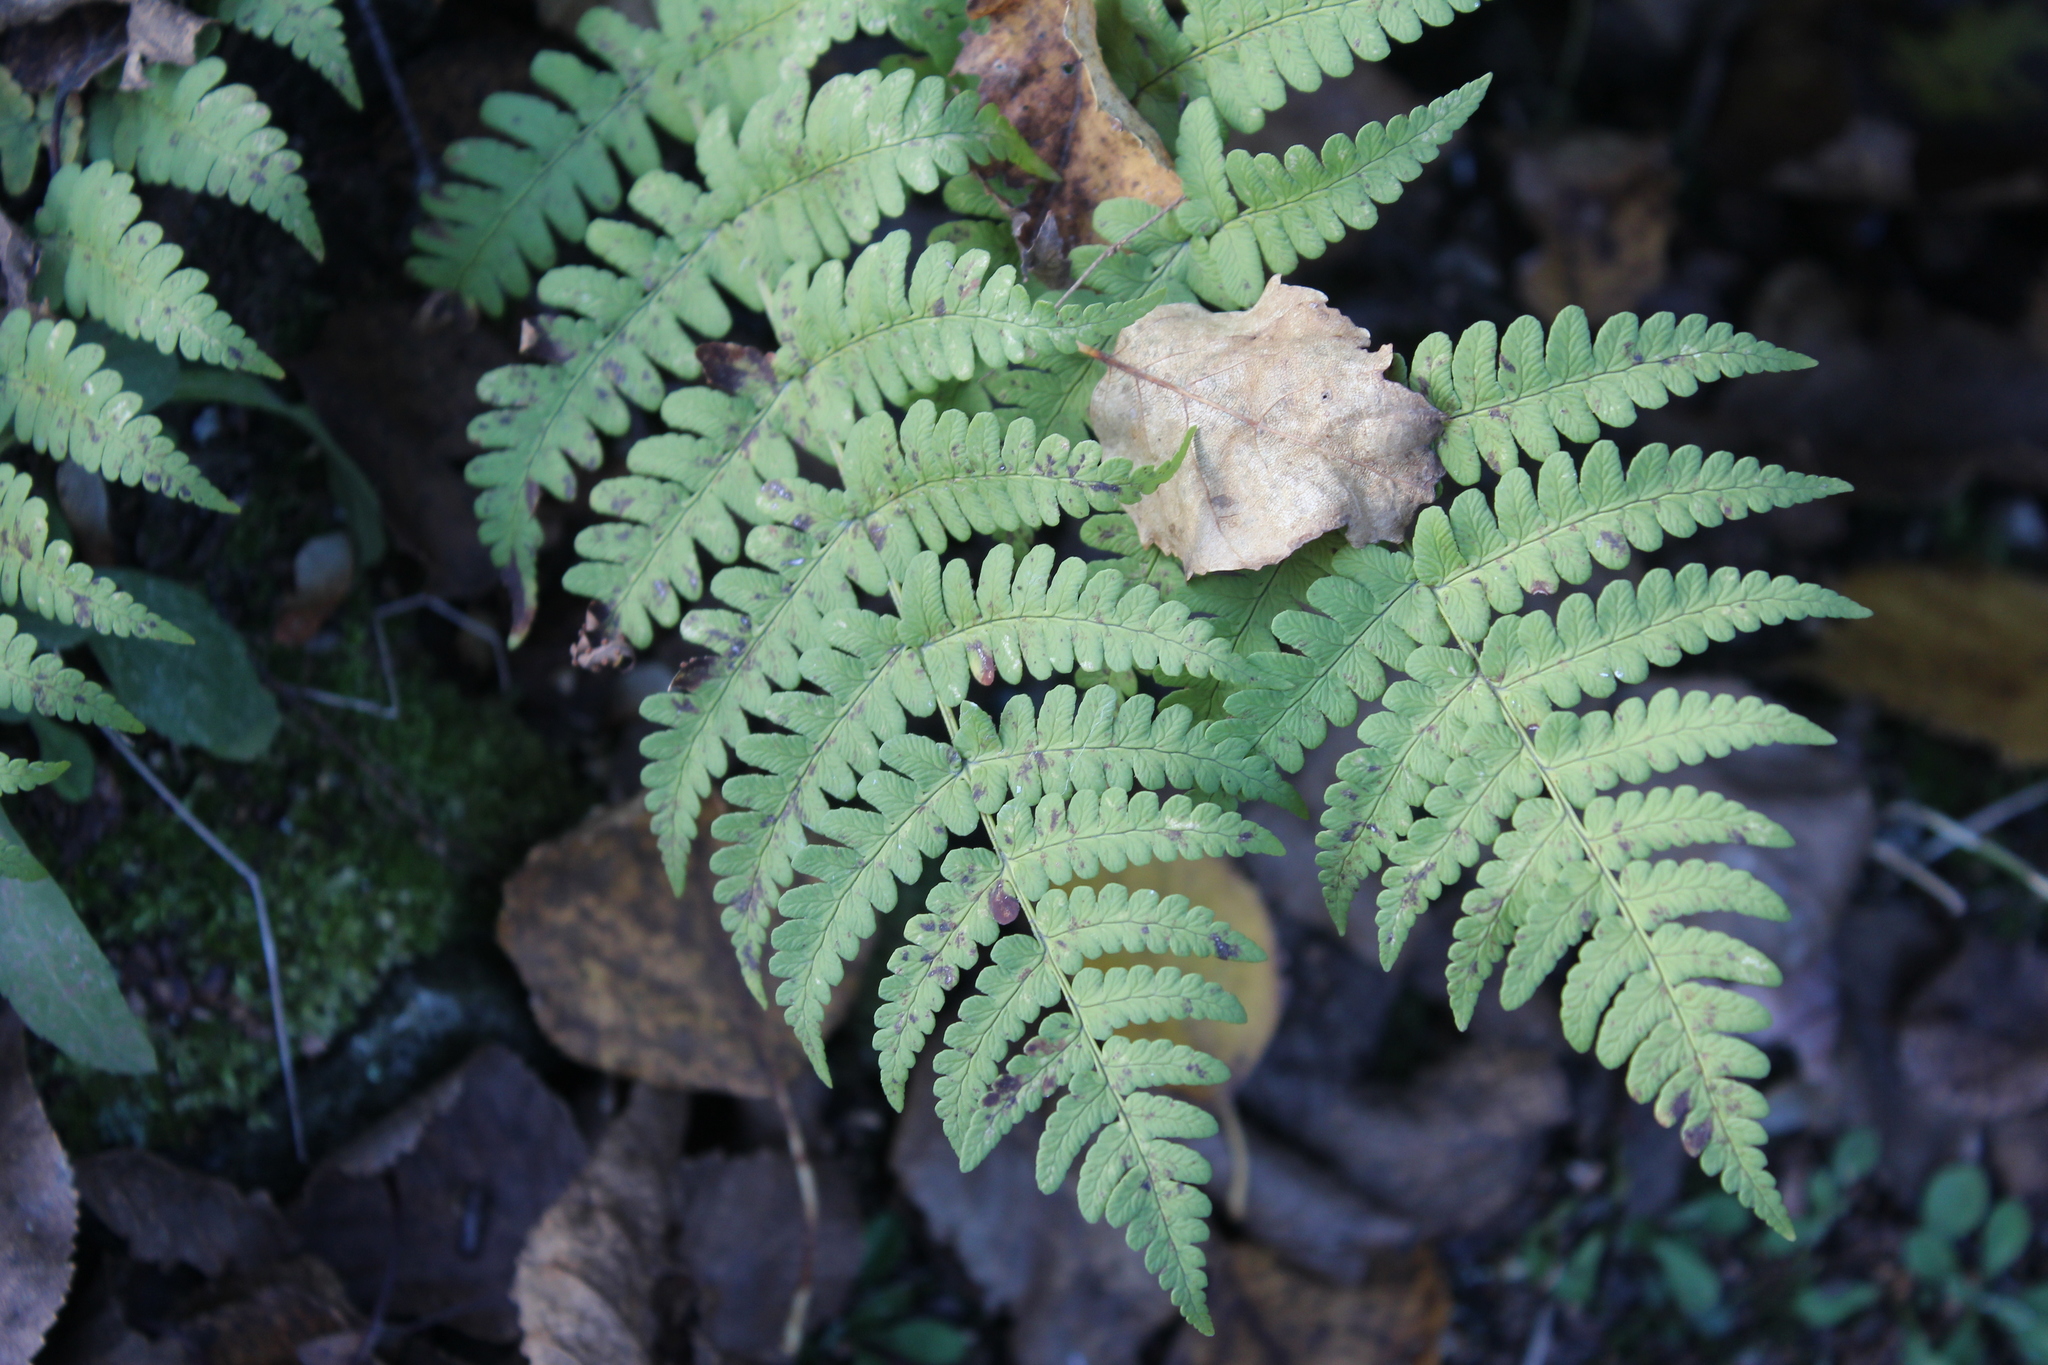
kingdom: Plantae
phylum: Tracheophyta
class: Polypodiopsida
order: Polypodiales
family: Dryopteridaceae
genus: Dryopteris
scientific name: Dryopteris marginalis
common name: Marginal wood fern
